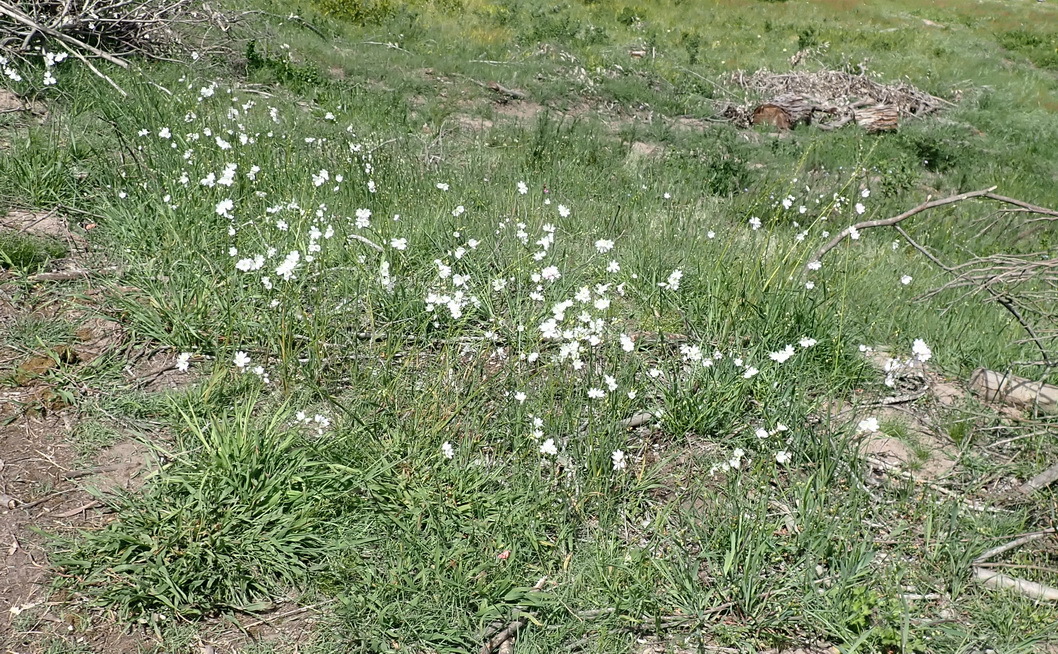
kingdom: Plantae
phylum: Tracheophyta
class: Liliopsida
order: Asparagales
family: Iridaceae
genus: Ixia
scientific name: Ixia orientalis
